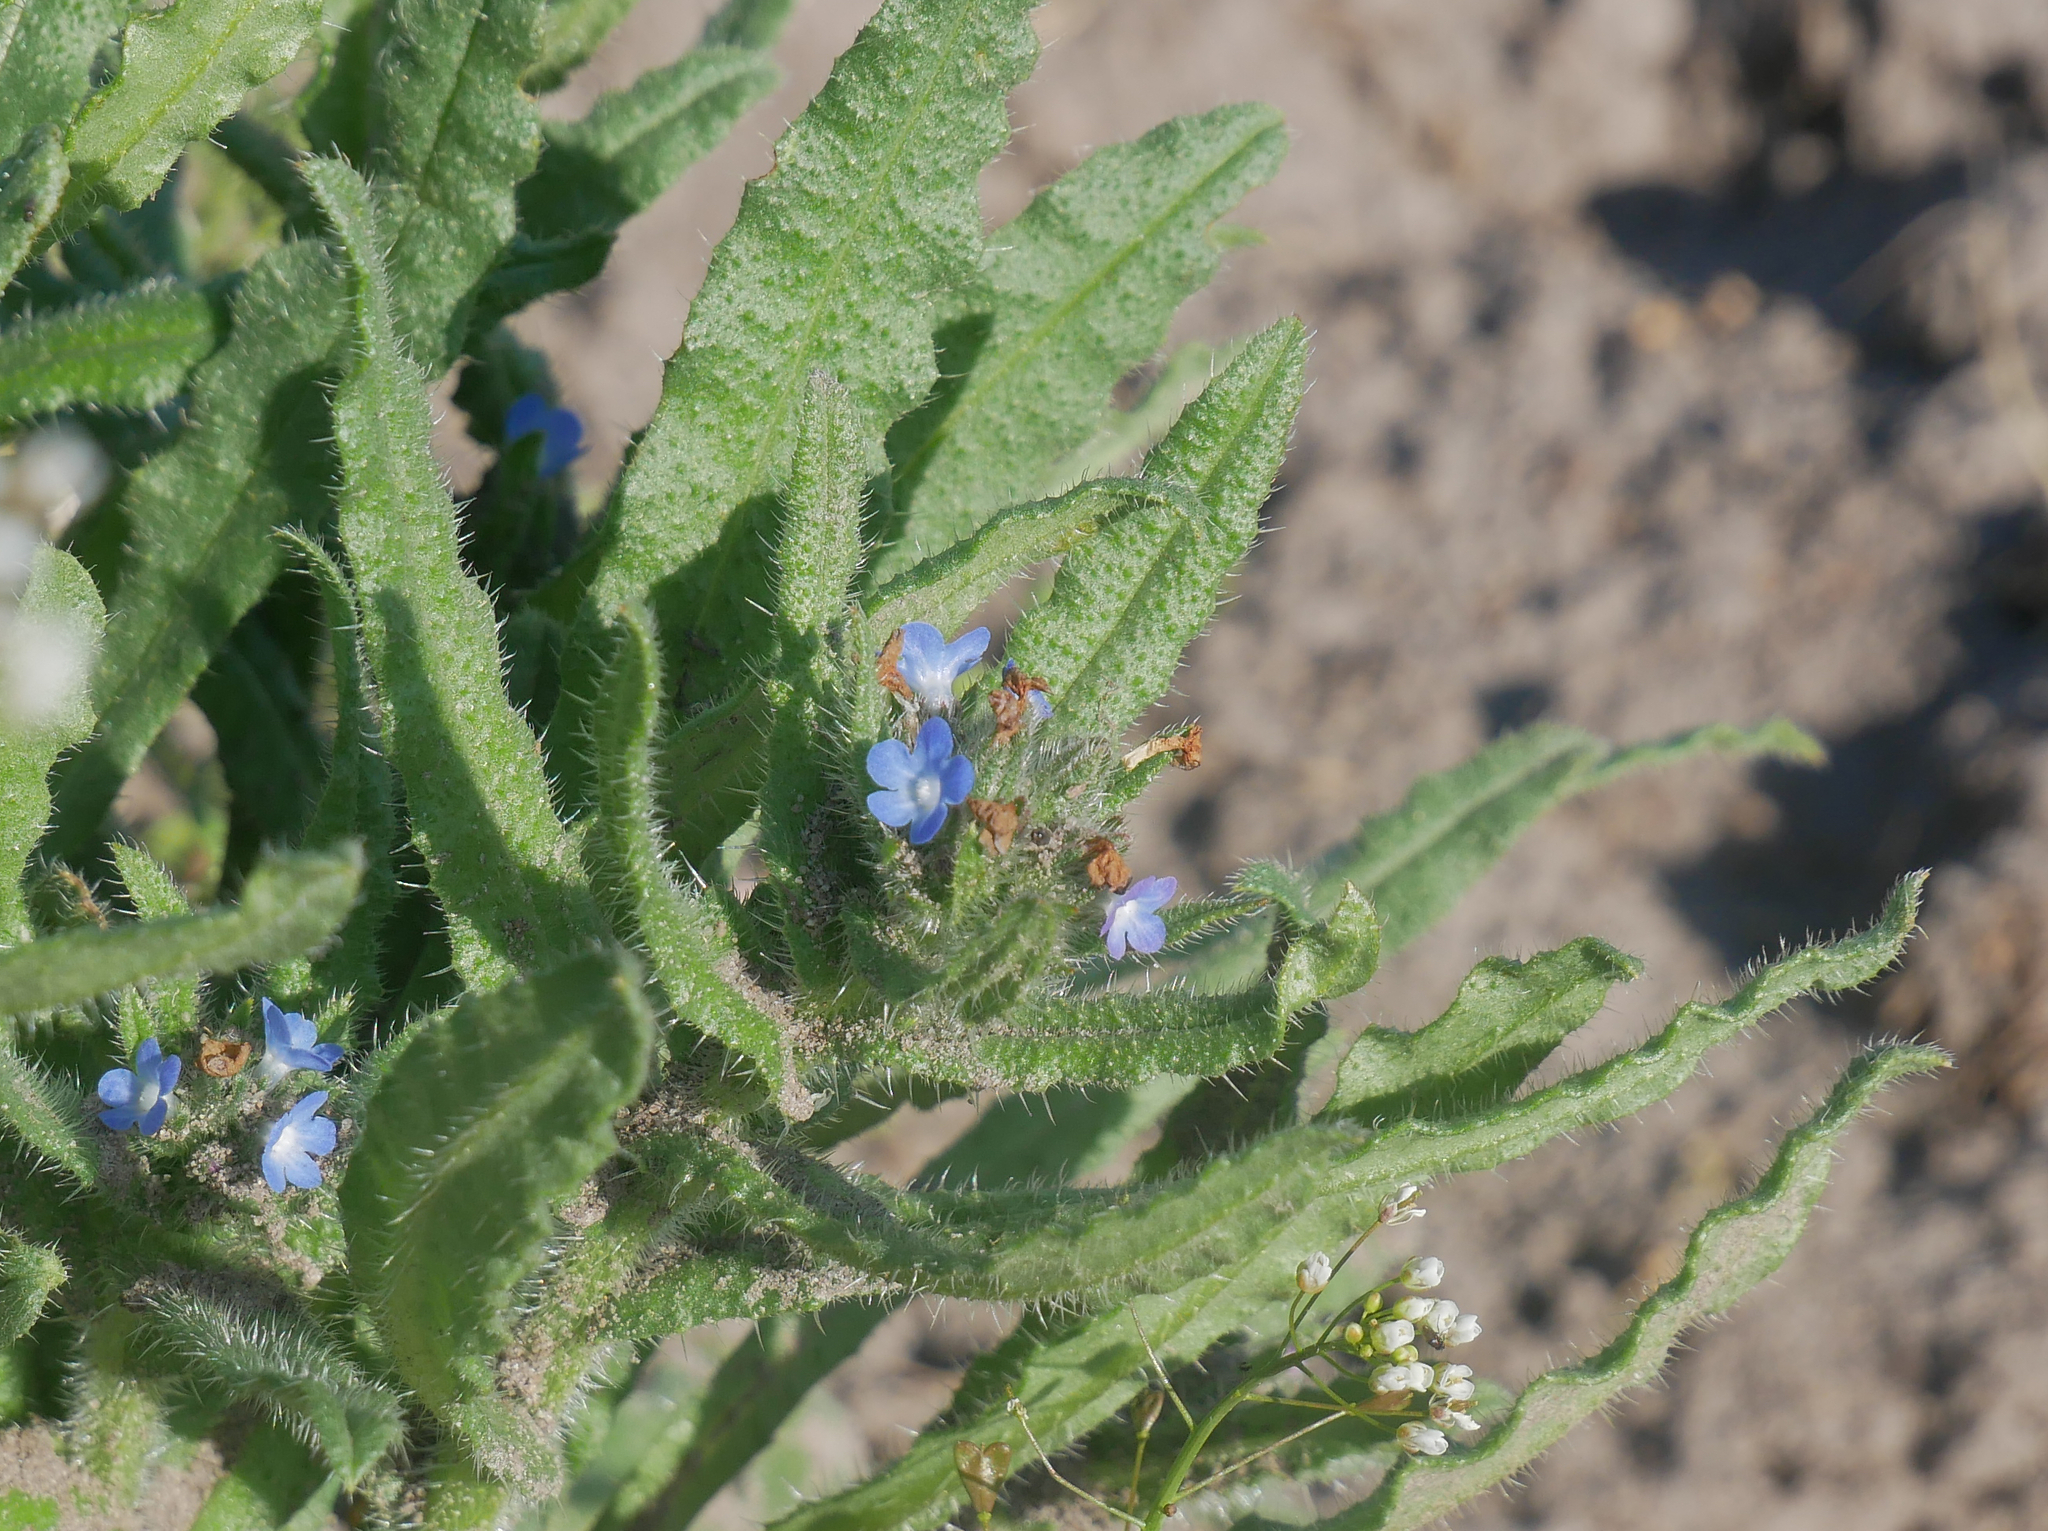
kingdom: Plantae
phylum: Tracheophyta
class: Magnoliopsida
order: Boraginales
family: Boraginaceae
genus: Lycopsis
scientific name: Lycopsis arvensis
